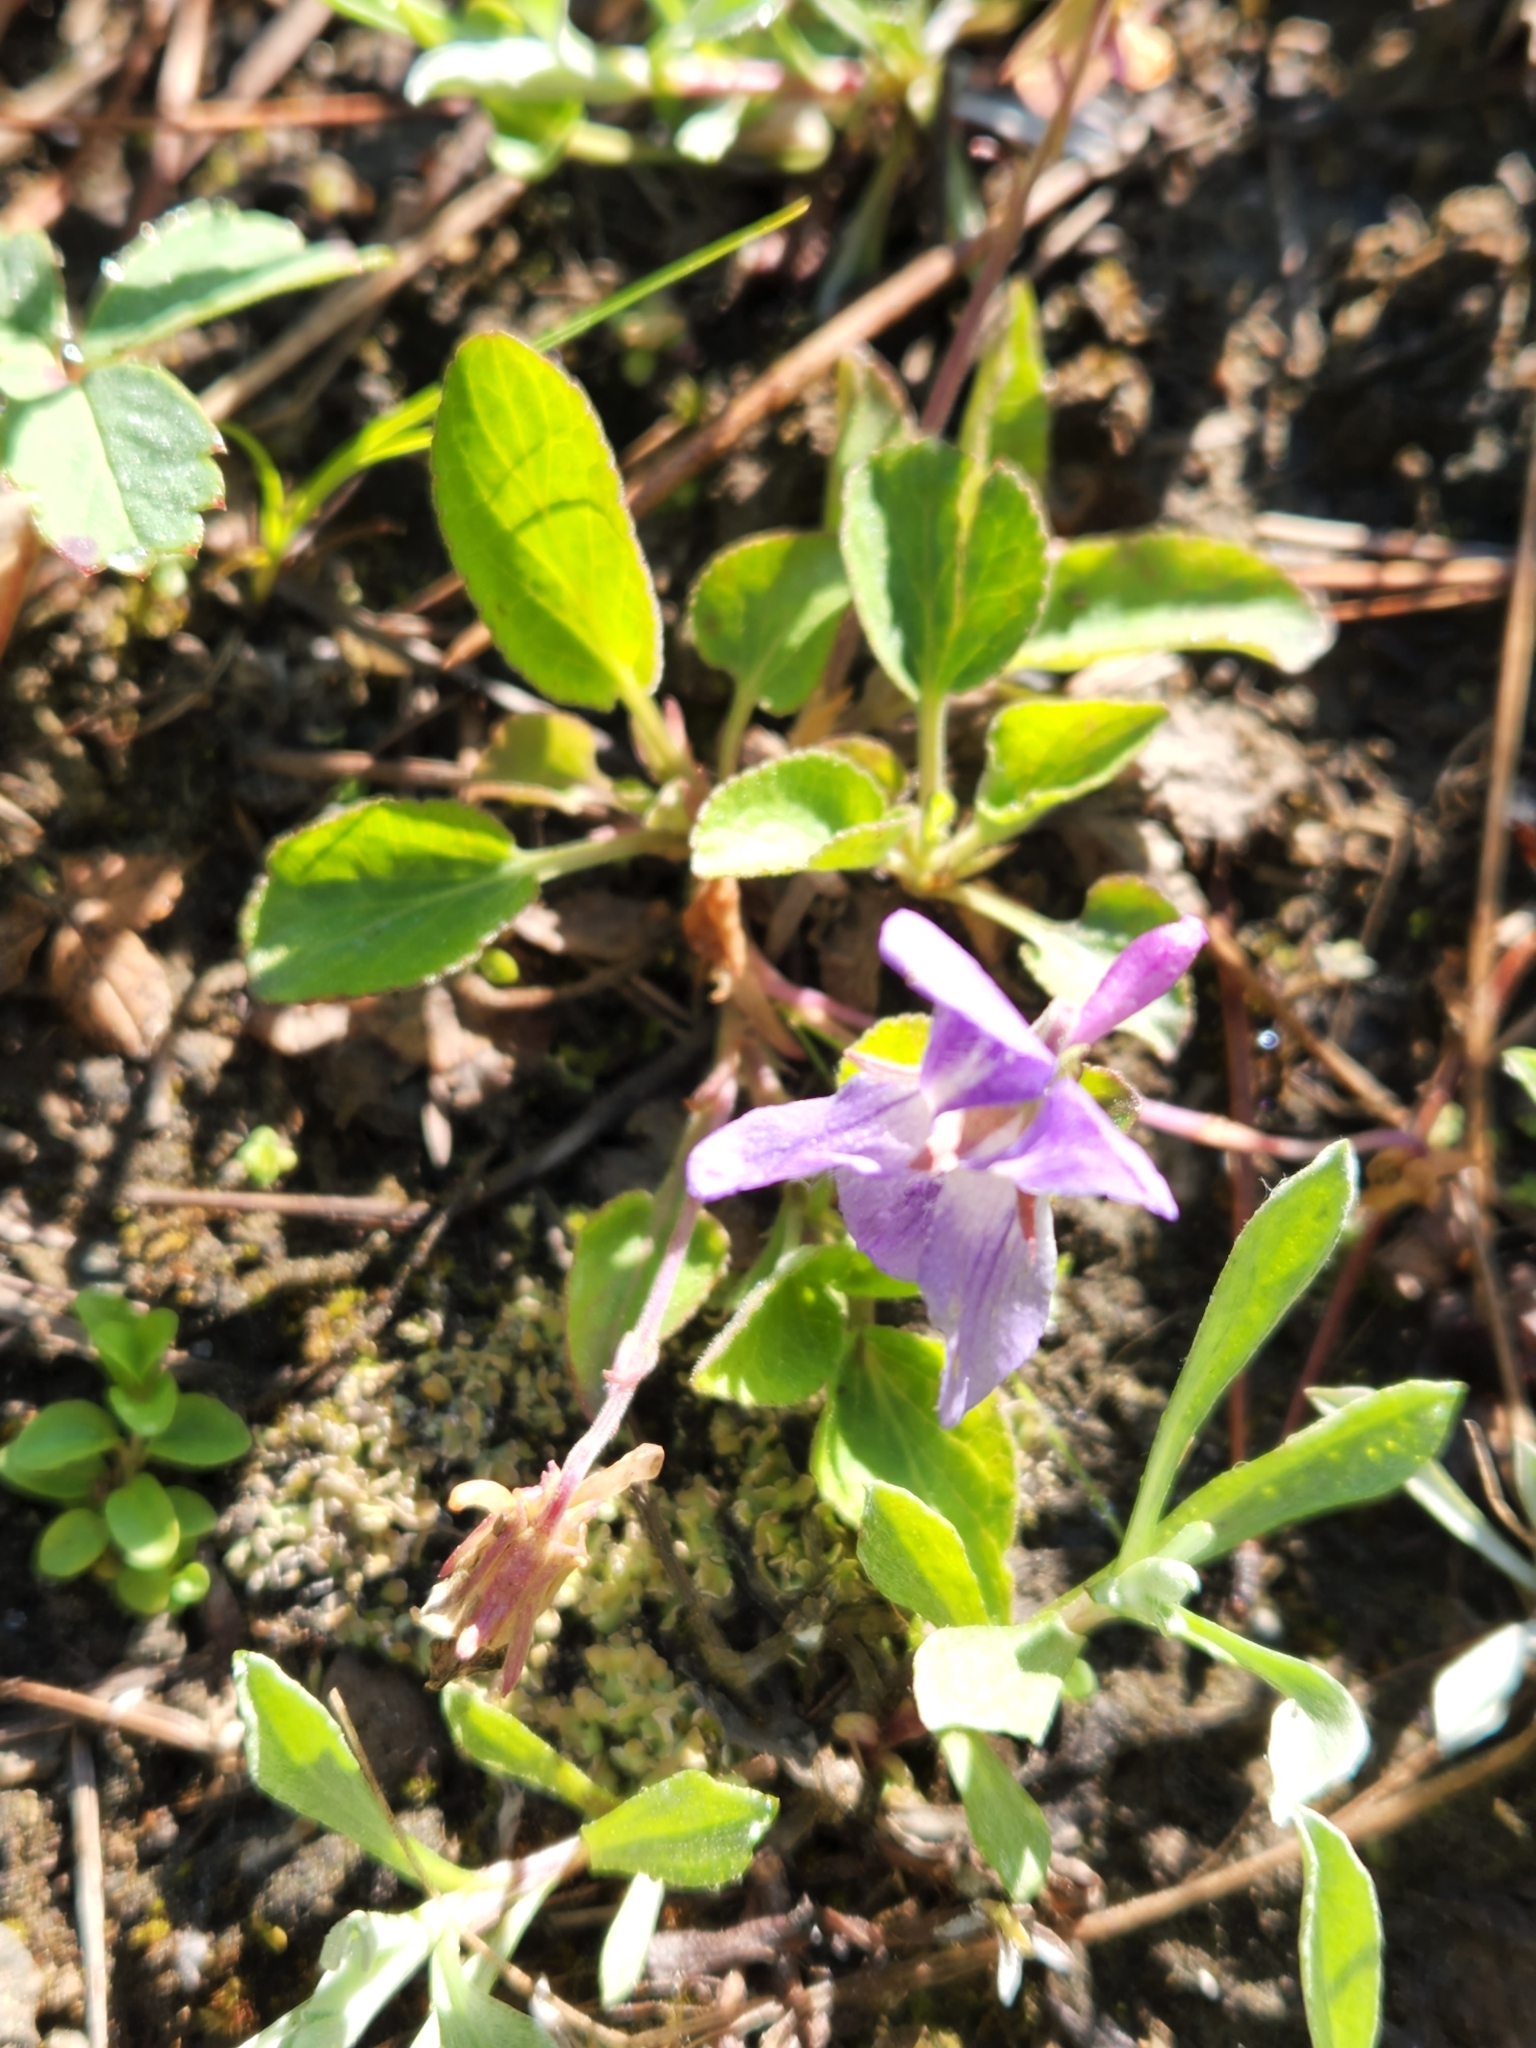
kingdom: Plantae
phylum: Tracheophyta
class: Magnoliopsida
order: Malpighiales
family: Violaceae
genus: Viola
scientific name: Viola adunca
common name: Sand violet
